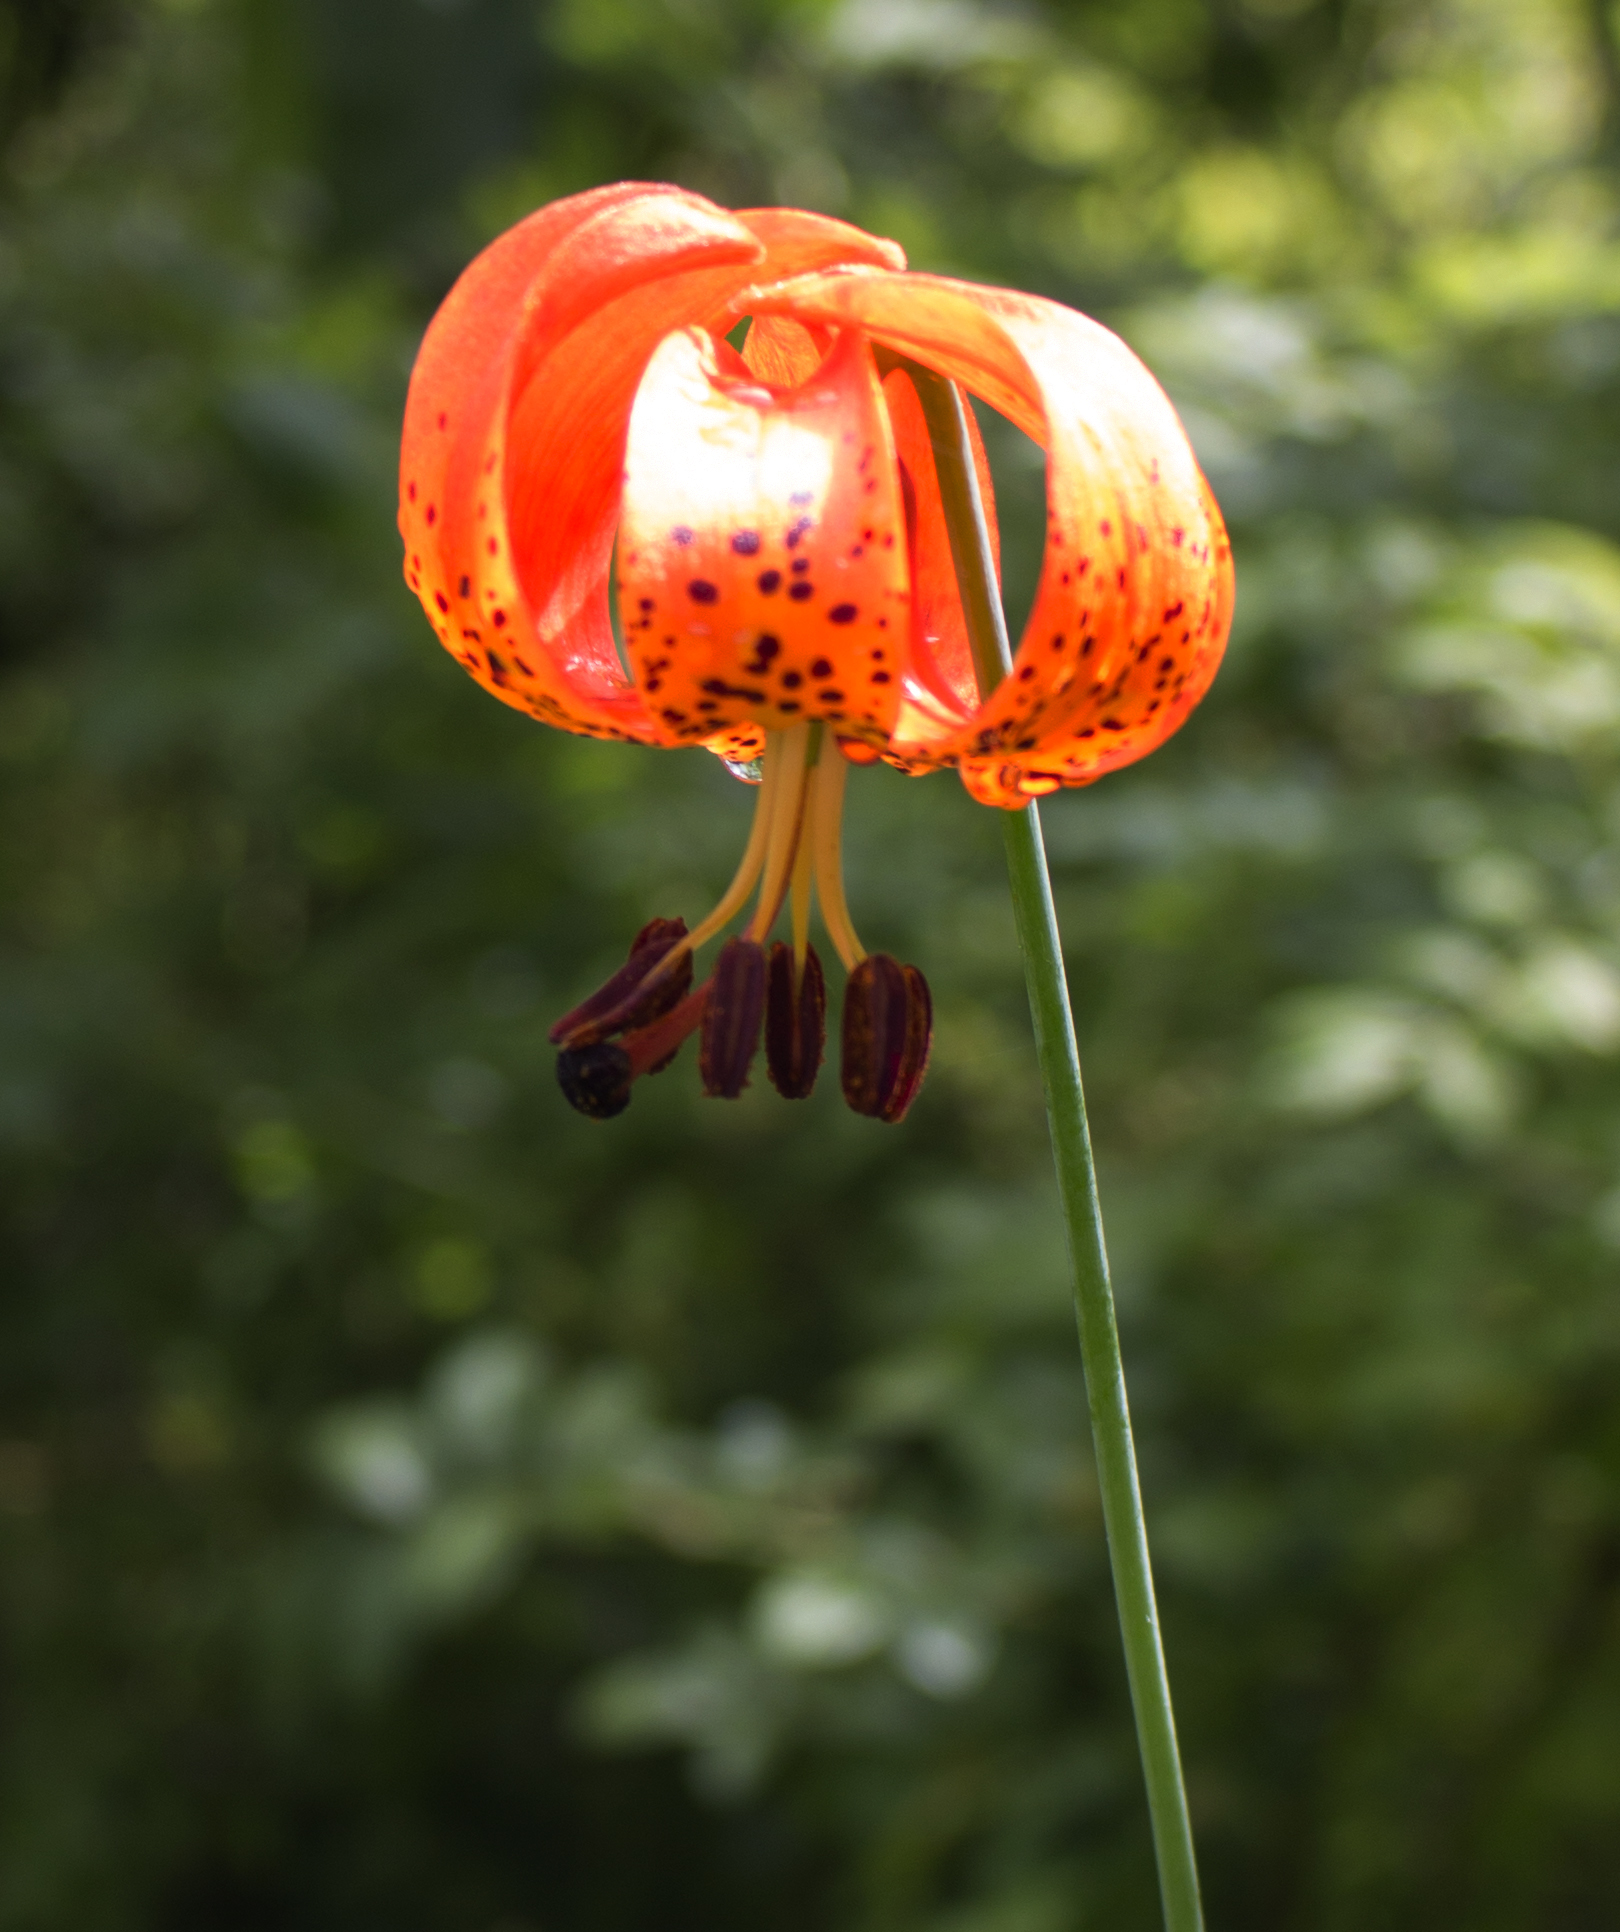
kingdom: Plantae
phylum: Tracheophyta
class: Liliopsida
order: Liliales
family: Liliaceae
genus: Lilium
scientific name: Lilium michiganense
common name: Michigan lily
